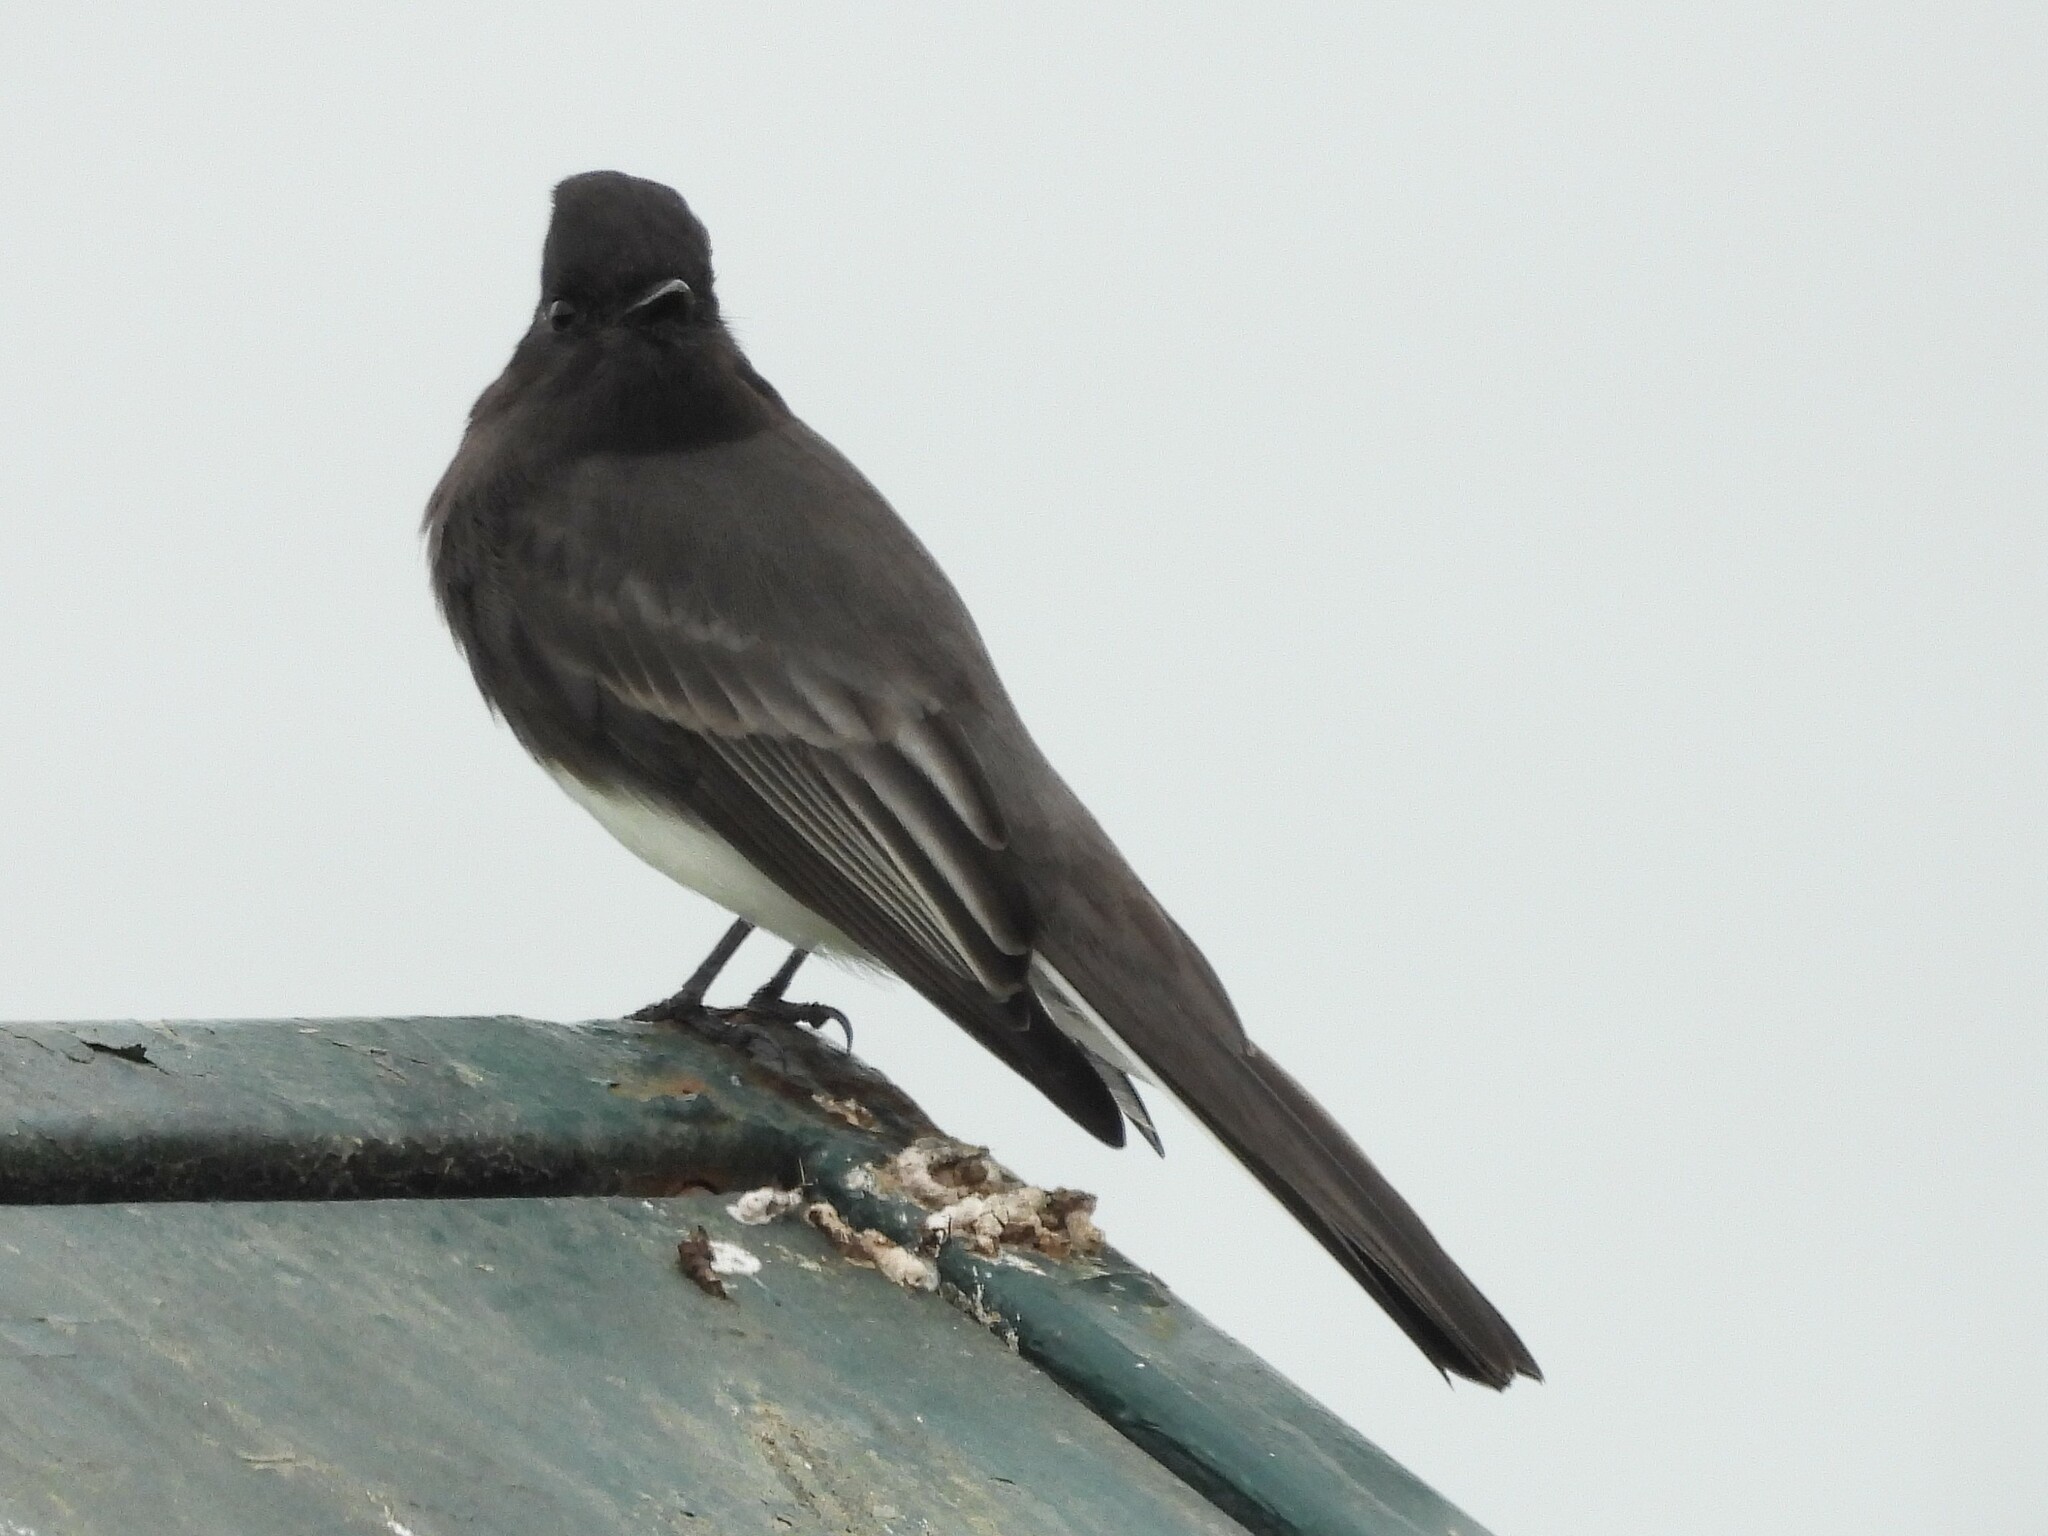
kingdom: Animalia
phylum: Chordata
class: Aves
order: Passeriformes
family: Tyrannidae
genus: Sayornis
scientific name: Sayornis nigricans
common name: Black phoebe
